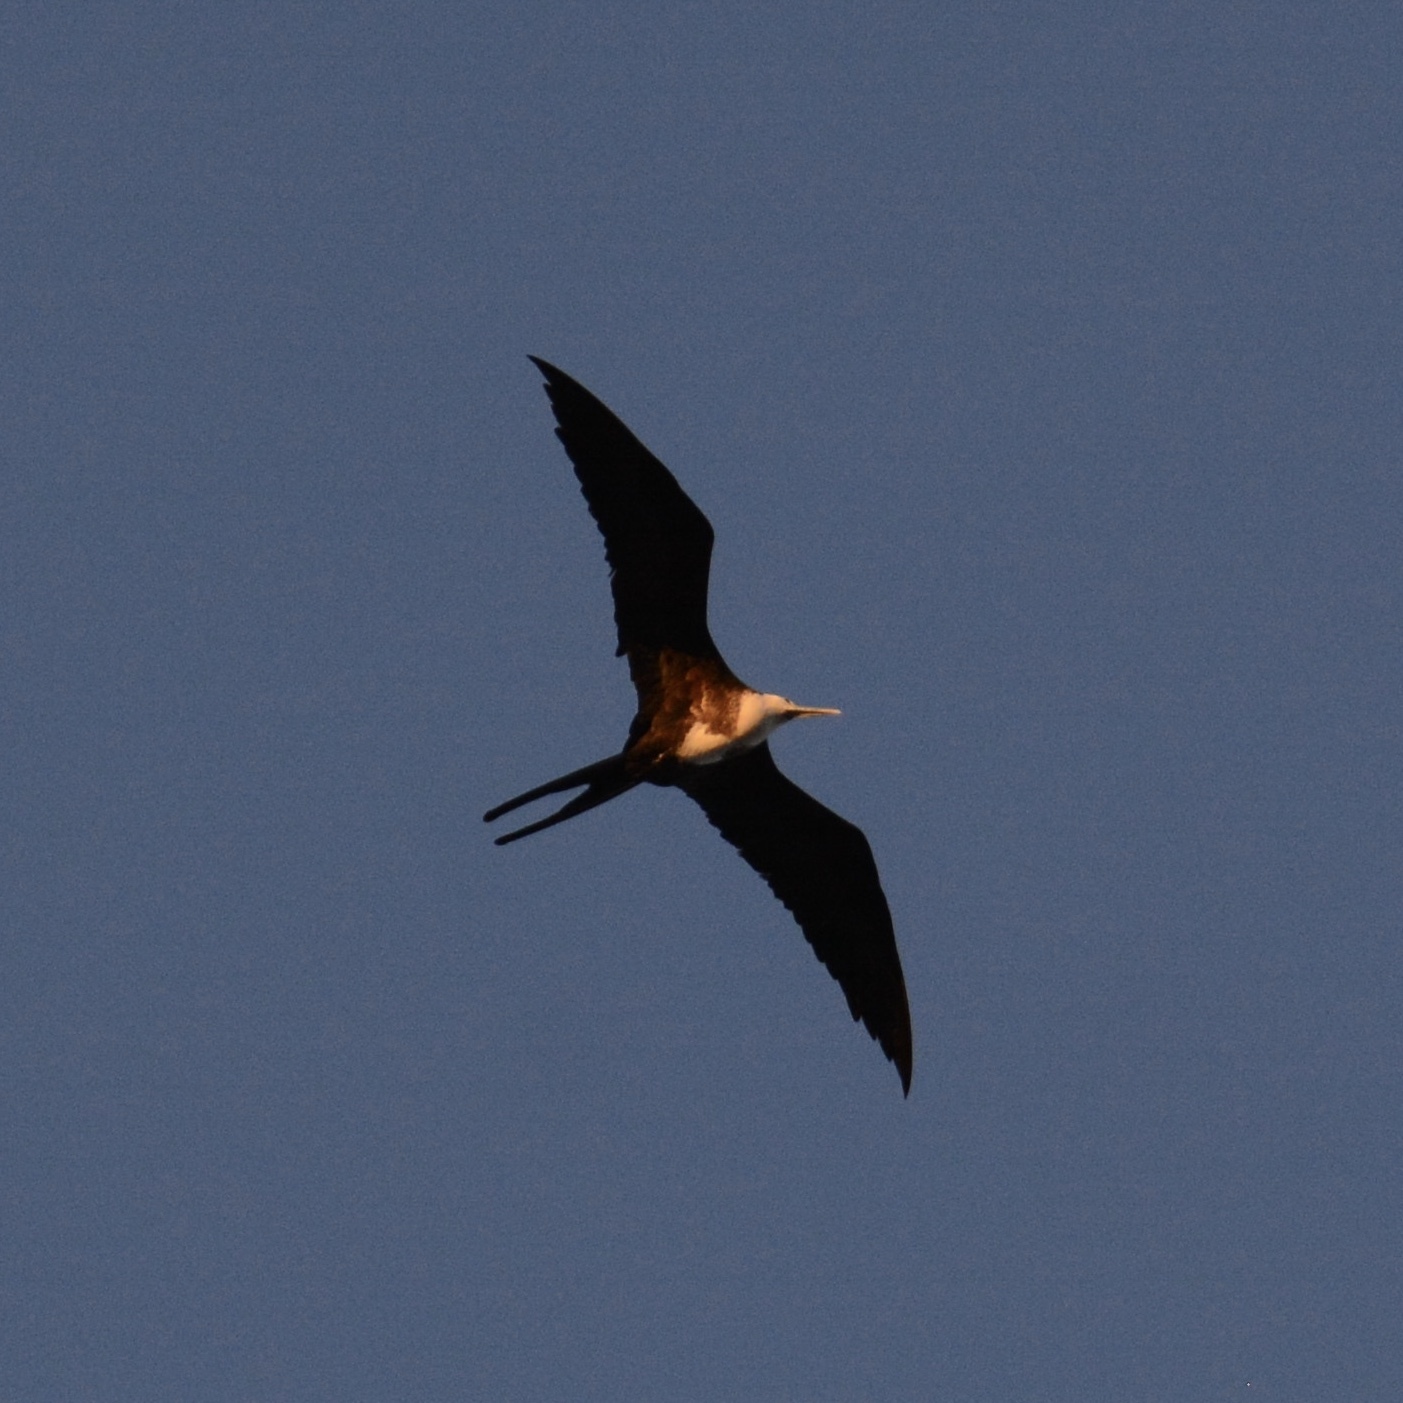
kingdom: Animalia
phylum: Chordata
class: Aves
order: Suliformes
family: Fregatidae
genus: Fregata
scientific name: Fregata magnificens
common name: Magnificent frigatebird
